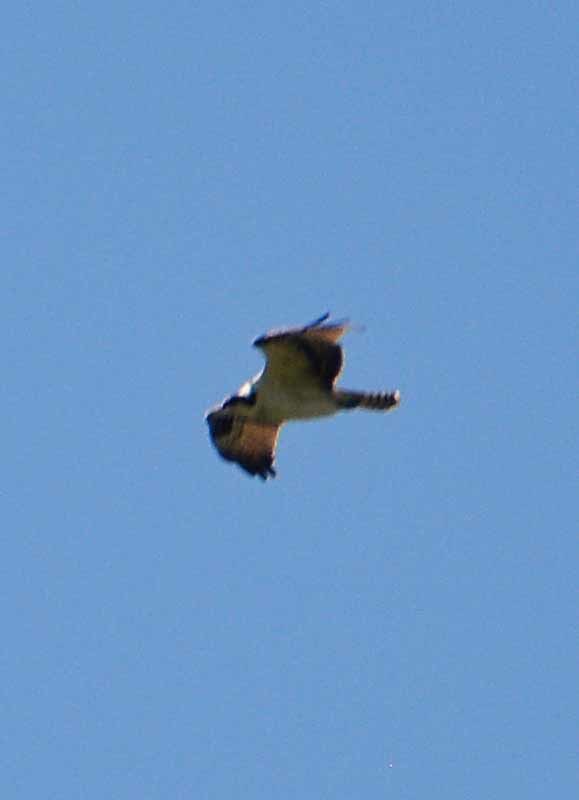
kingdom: Animalia
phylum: Chordata
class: Aves
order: Accipitriformes
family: Pandionidae
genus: Pandion
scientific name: Pandion haliaetus
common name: Osprey
